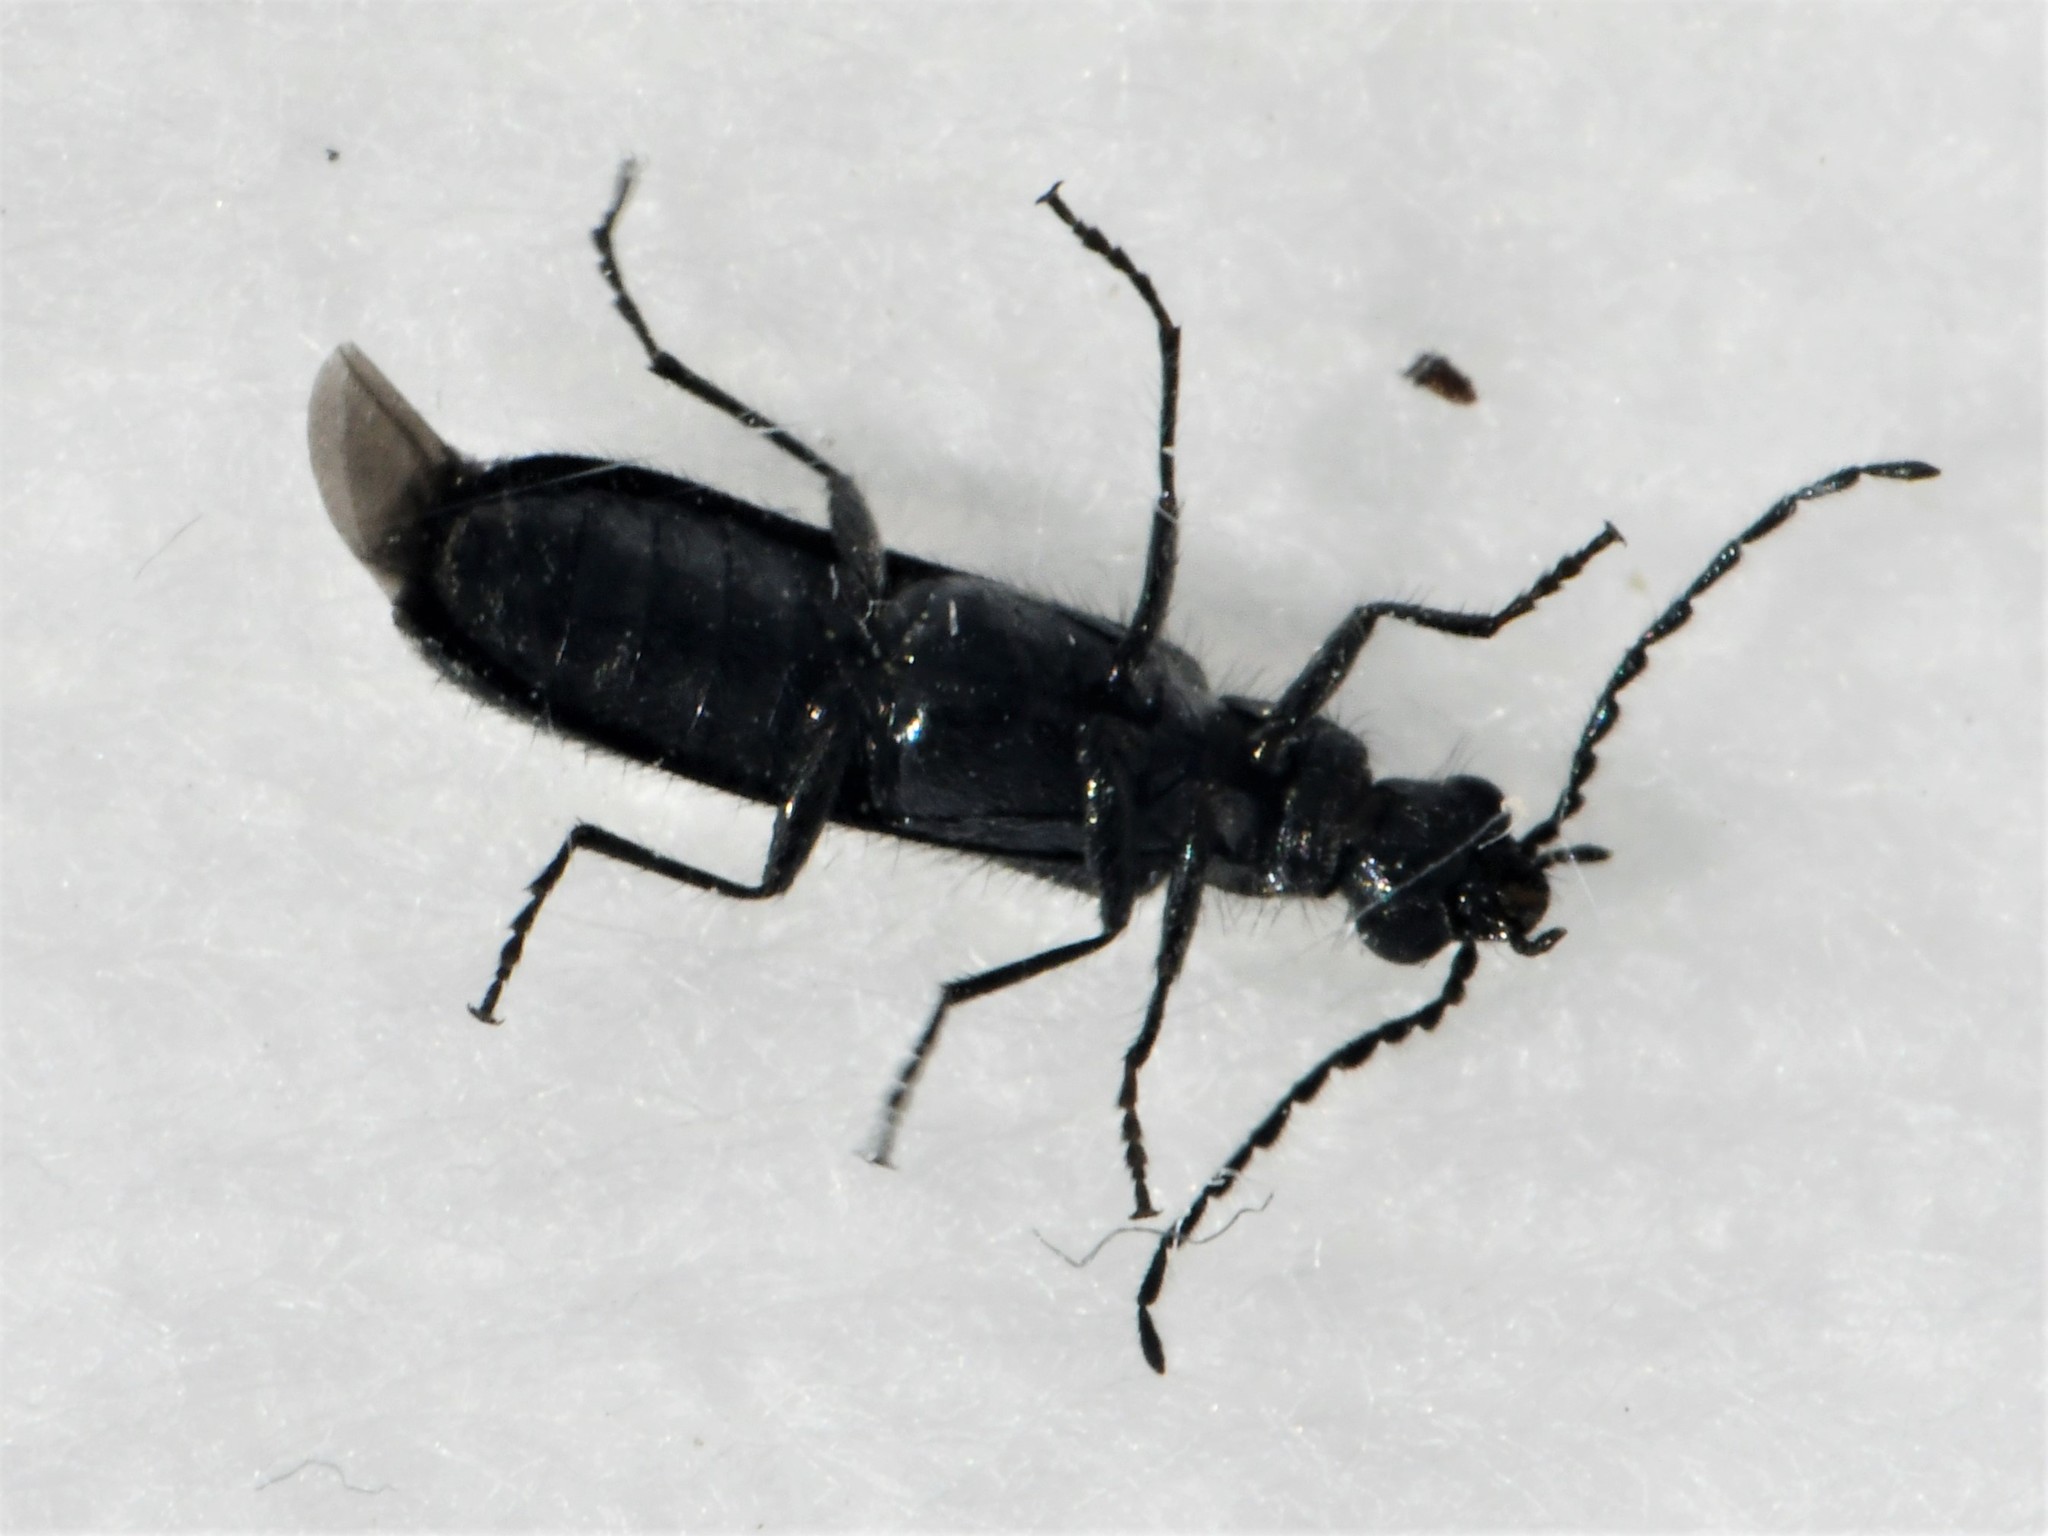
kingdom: Animalia
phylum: Arthropoda
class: Insecta
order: Coleoptera
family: Melyridae
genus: Dasytes
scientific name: Dasytes aeratus
